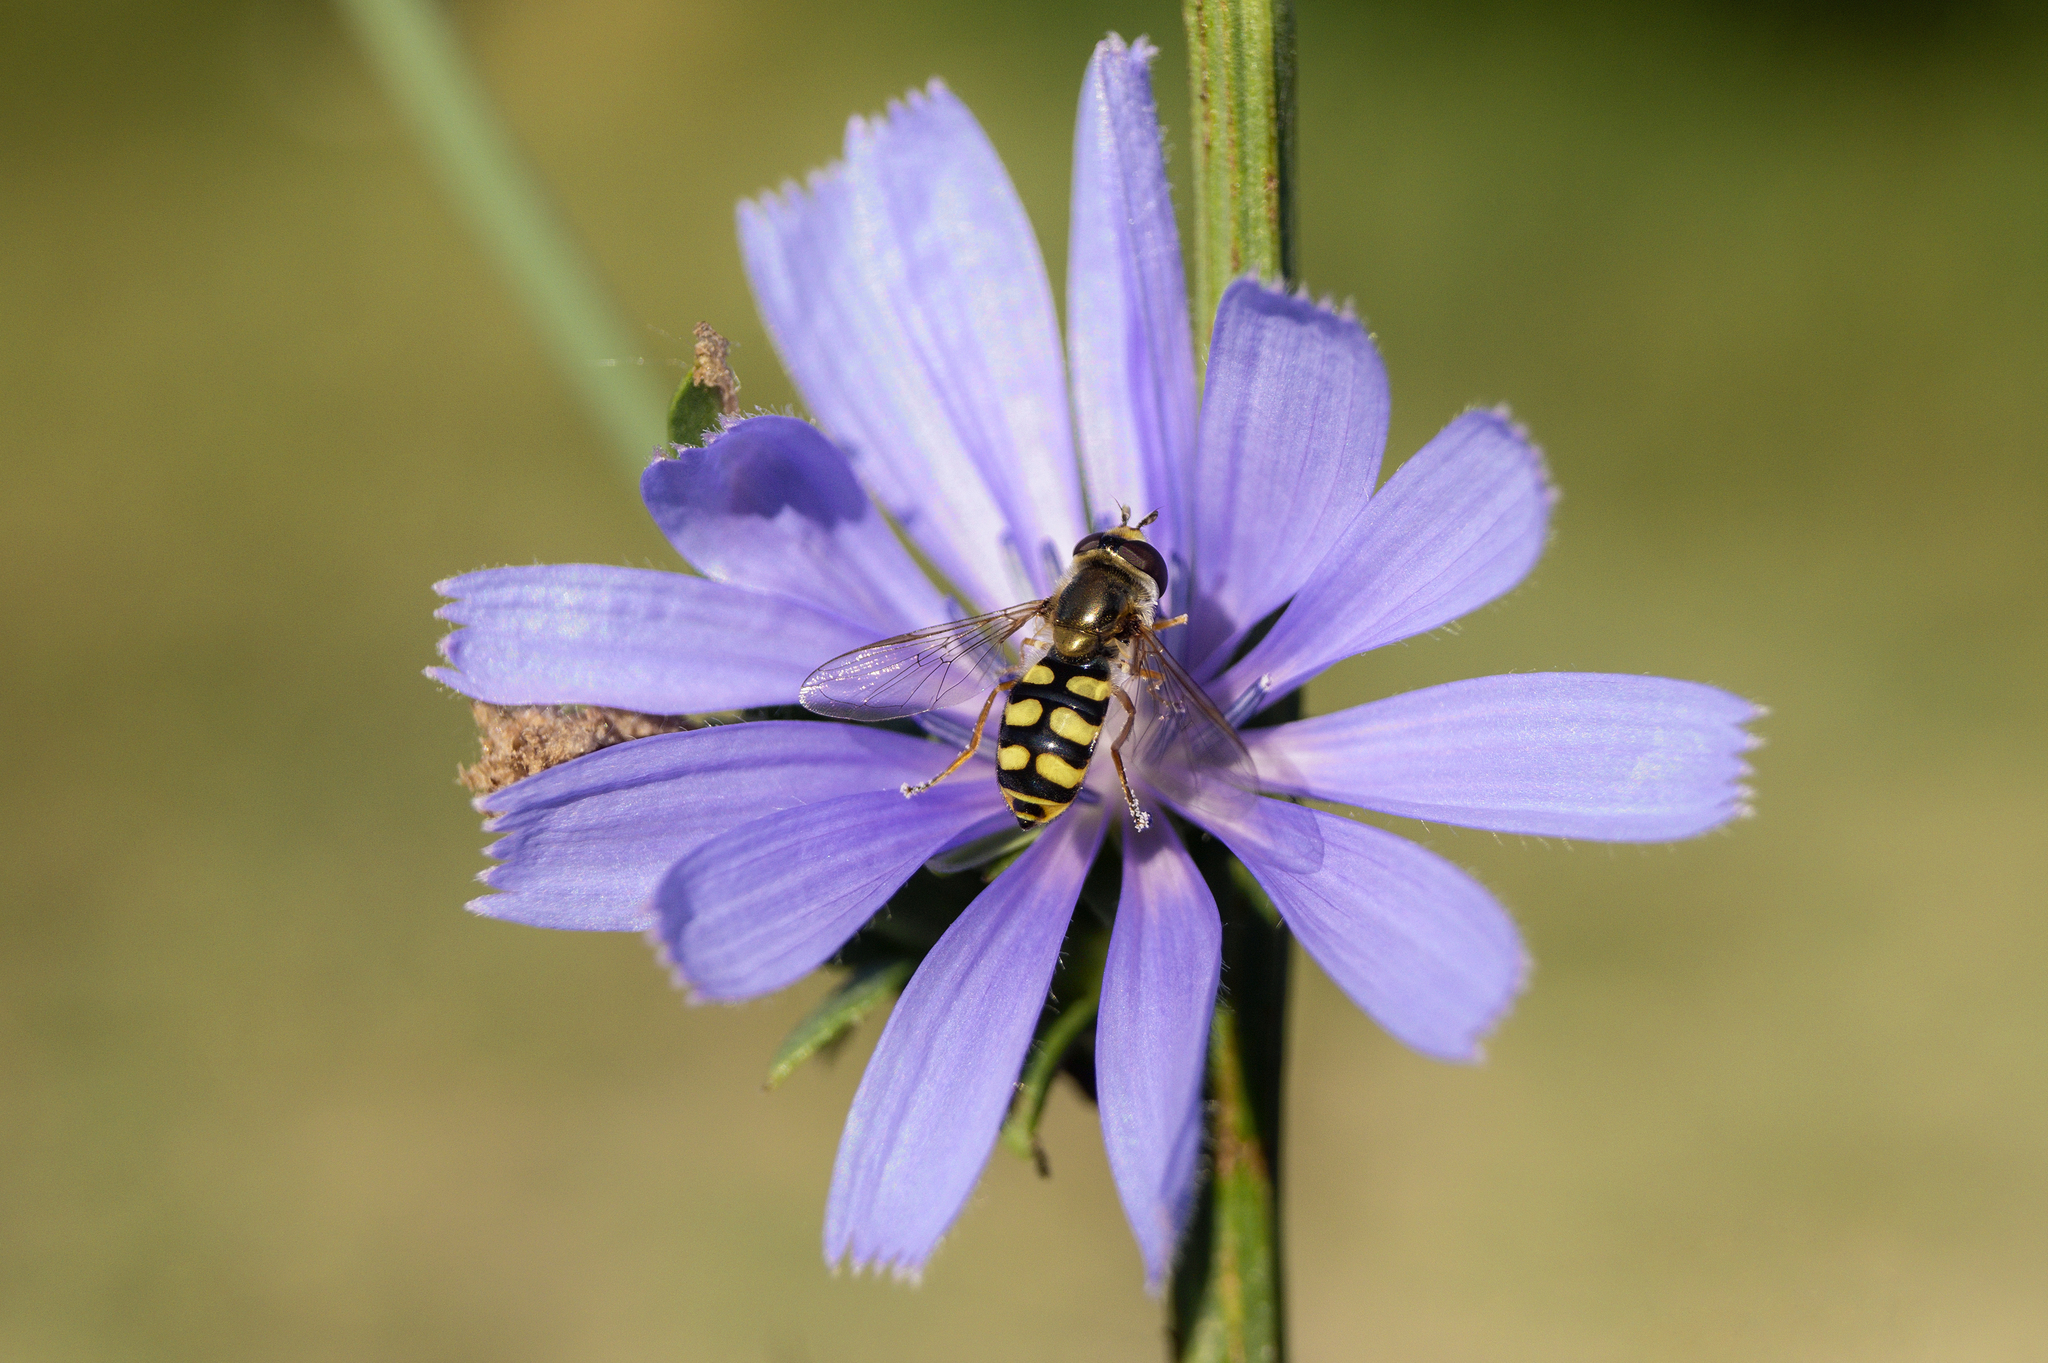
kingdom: Animalia
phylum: Arthropoda
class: Insecta
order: Diptera
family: Syrphidae
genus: Eupeodes
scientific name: Eupeodes corollae
